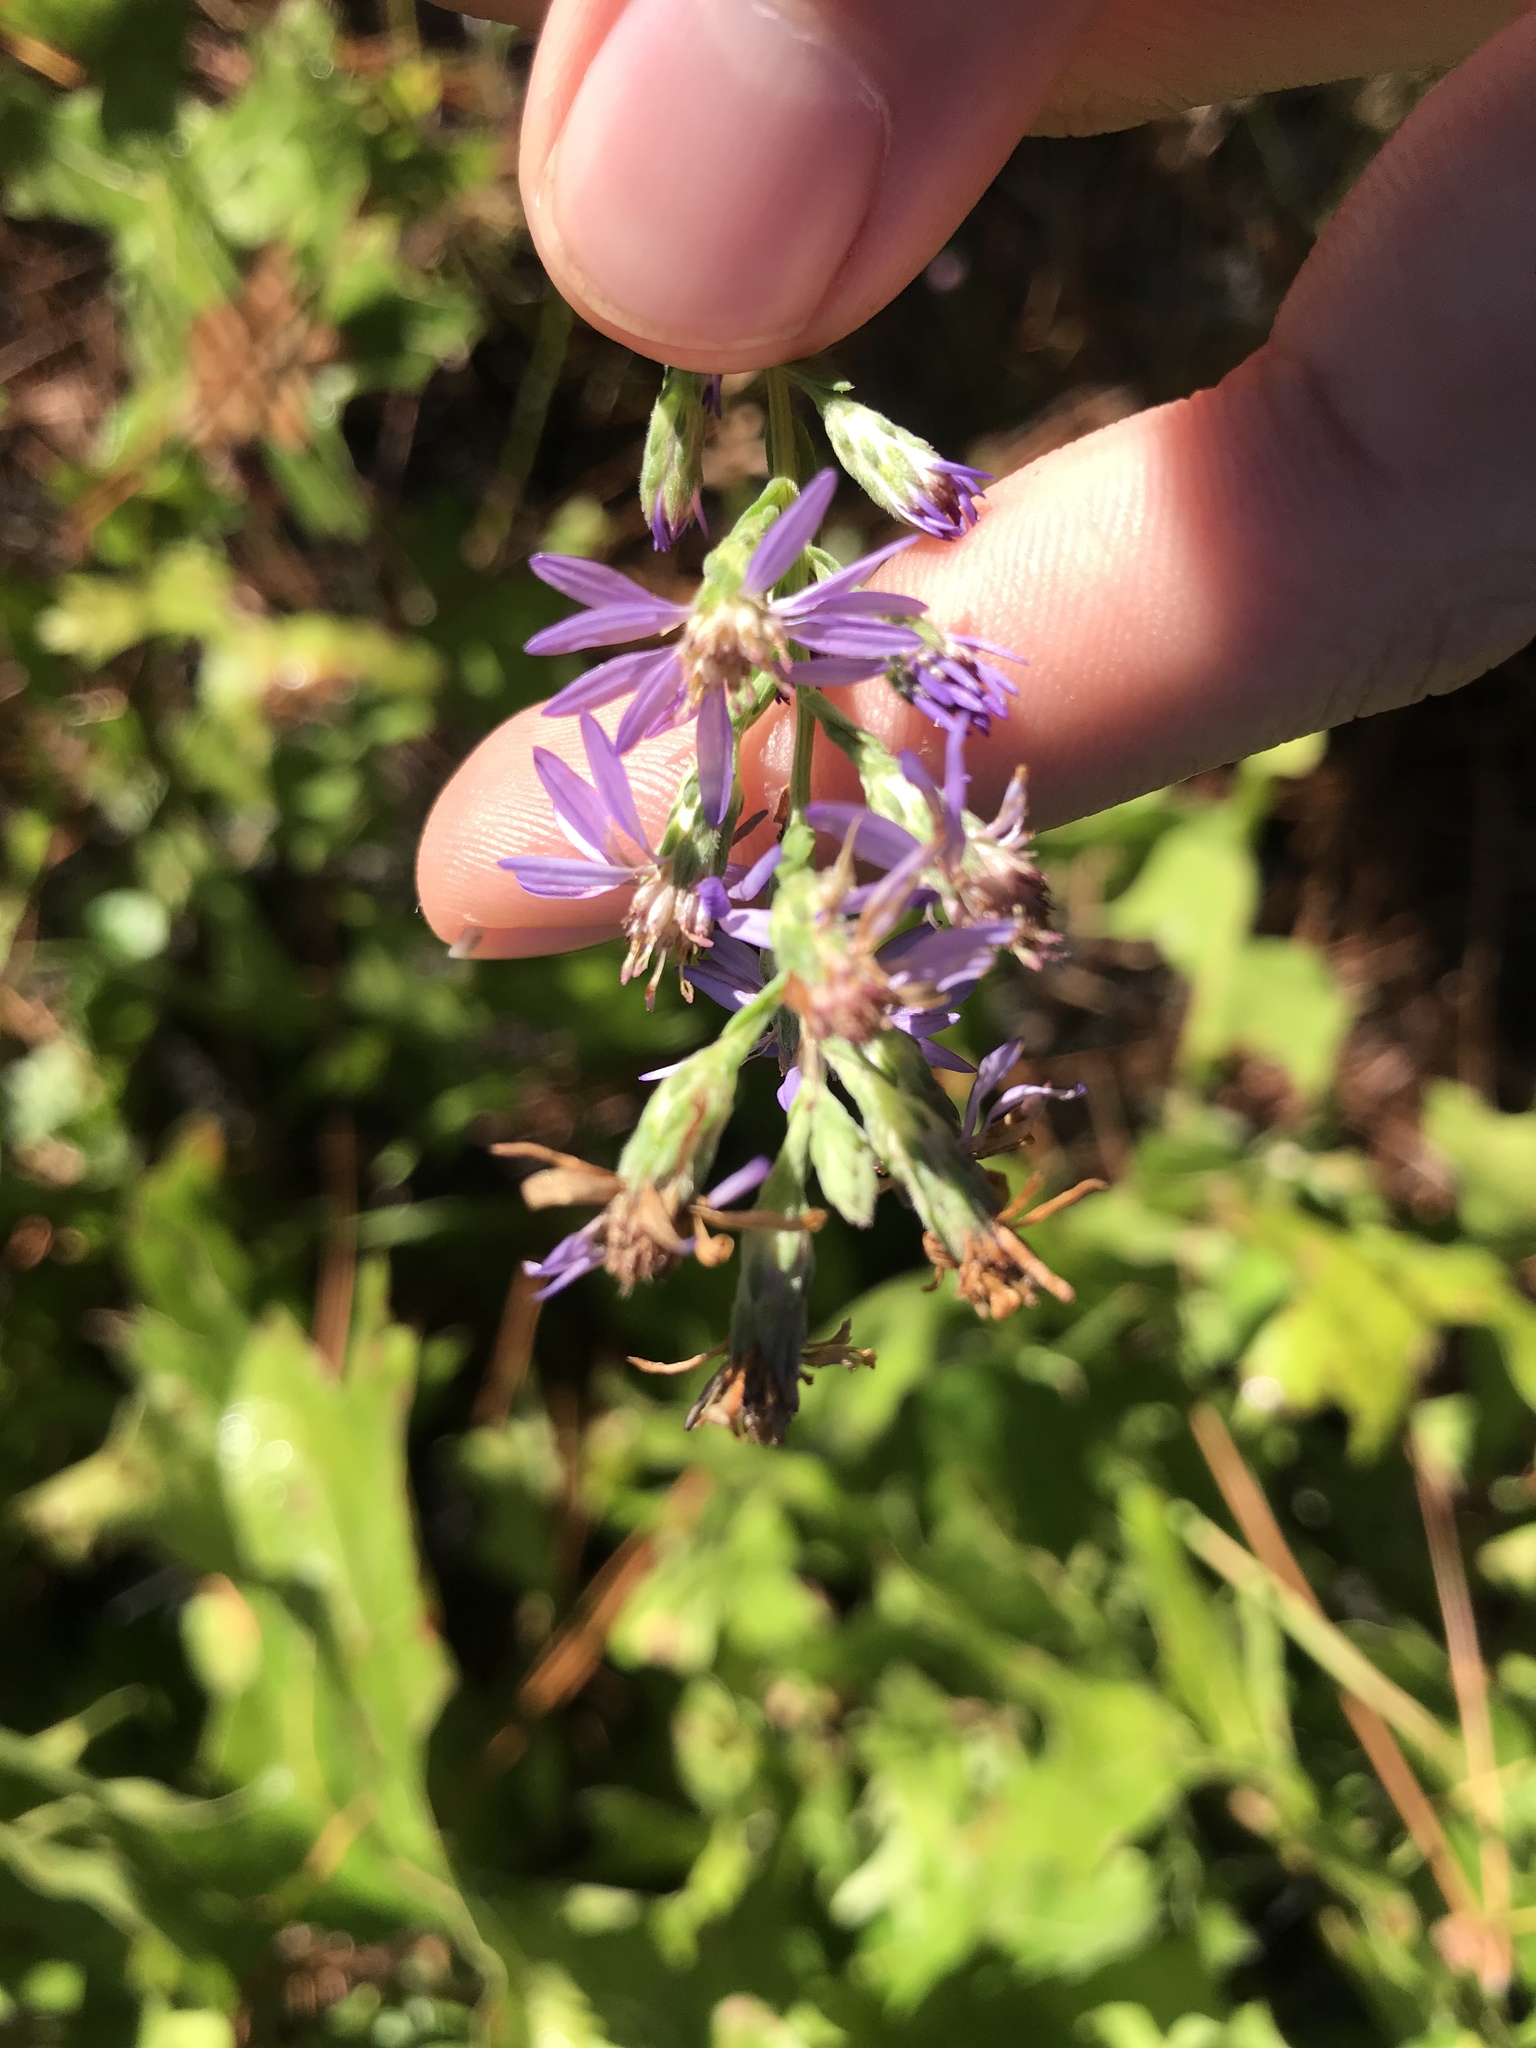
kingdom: Plantae
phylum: Tracheophyta
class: Magnoliopsida
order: Asterales
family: Asteraceae
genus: Symphyotrichum
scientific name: Symphyotrichum concolor
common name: Eastern silver aster
